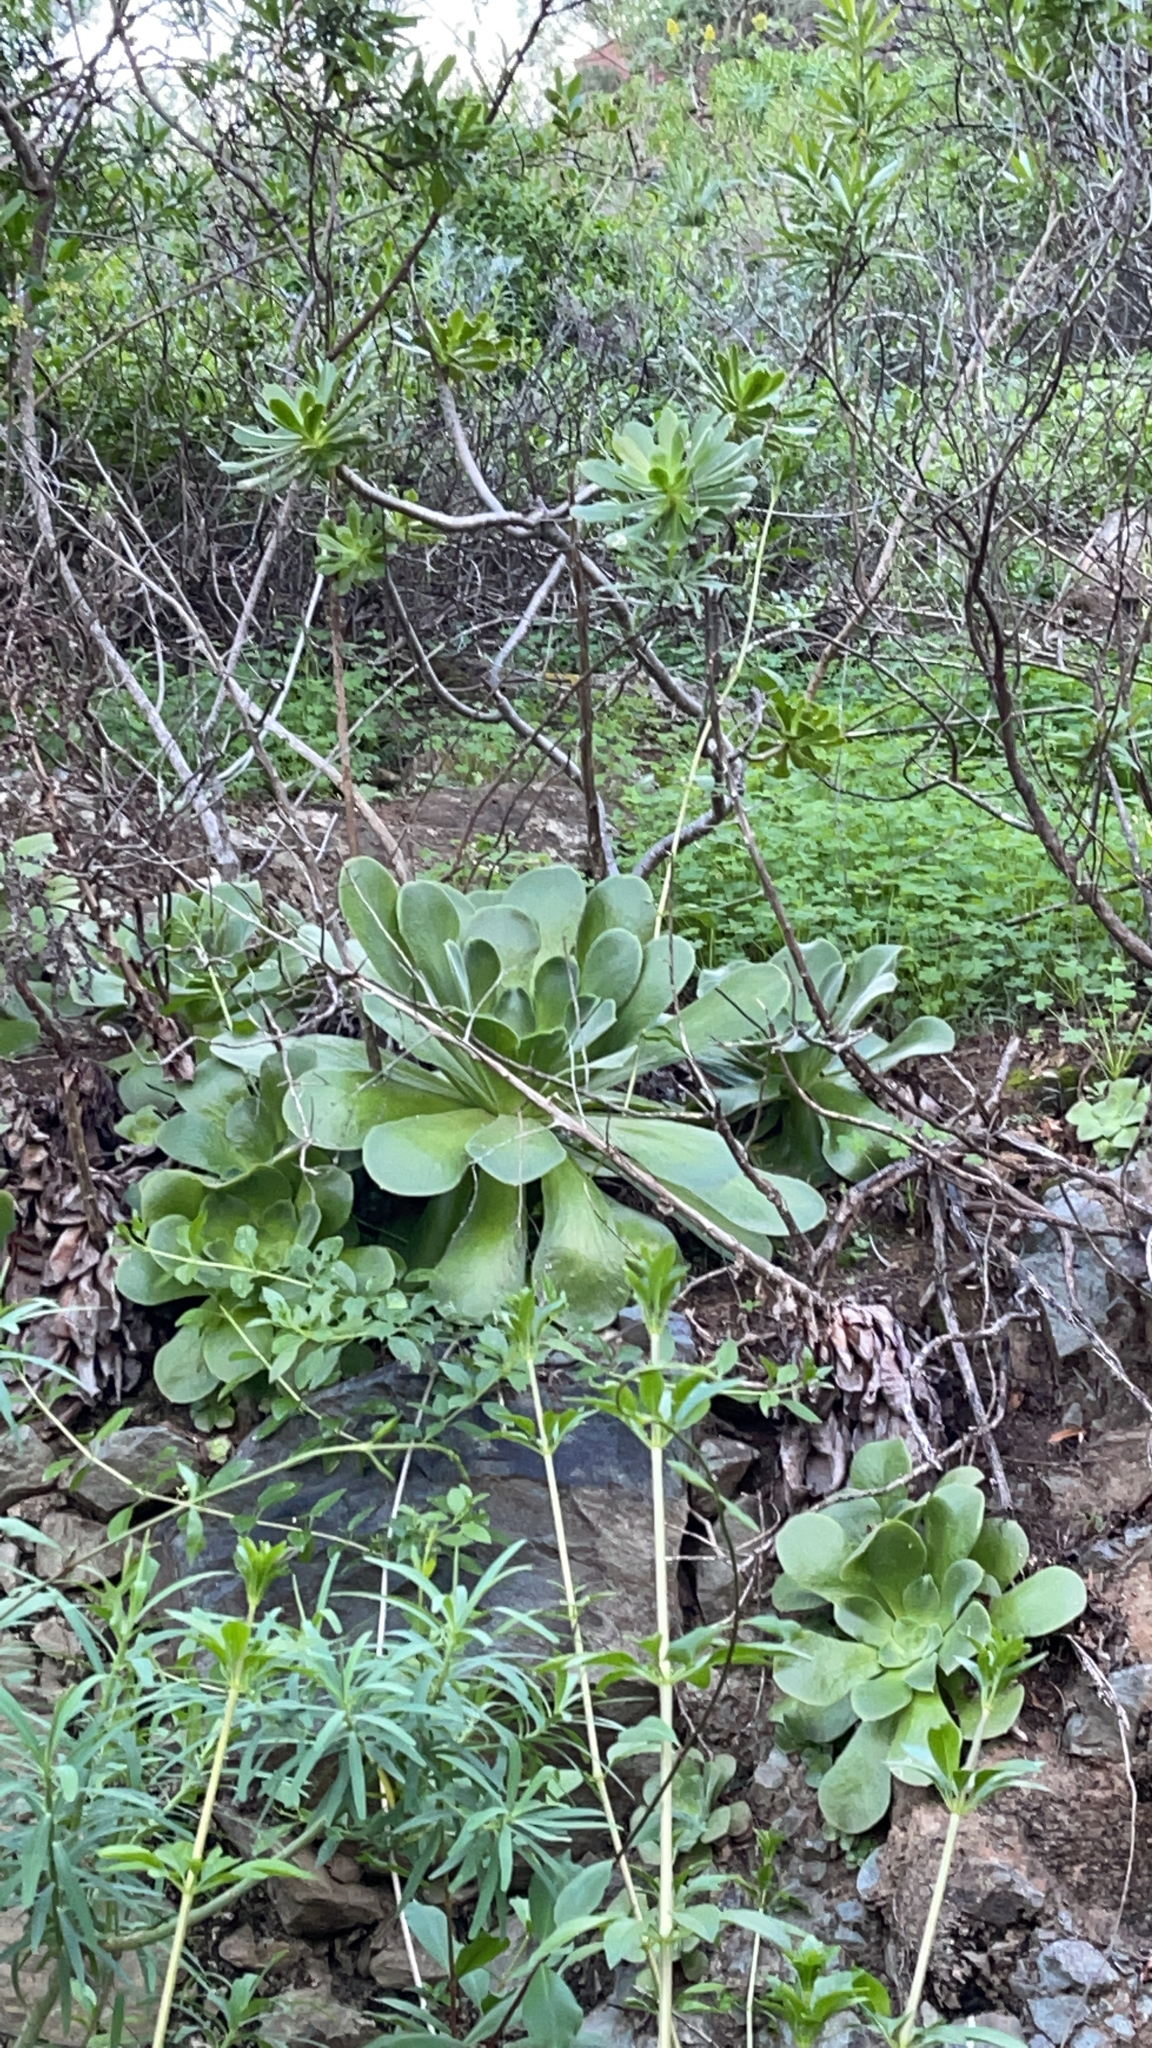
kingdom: Plantae
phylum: Tracheophyta
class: Magnoliopsida
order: Saxifragales
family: Crassulaceae
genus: Aeonium
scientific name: Aeonium canariense
